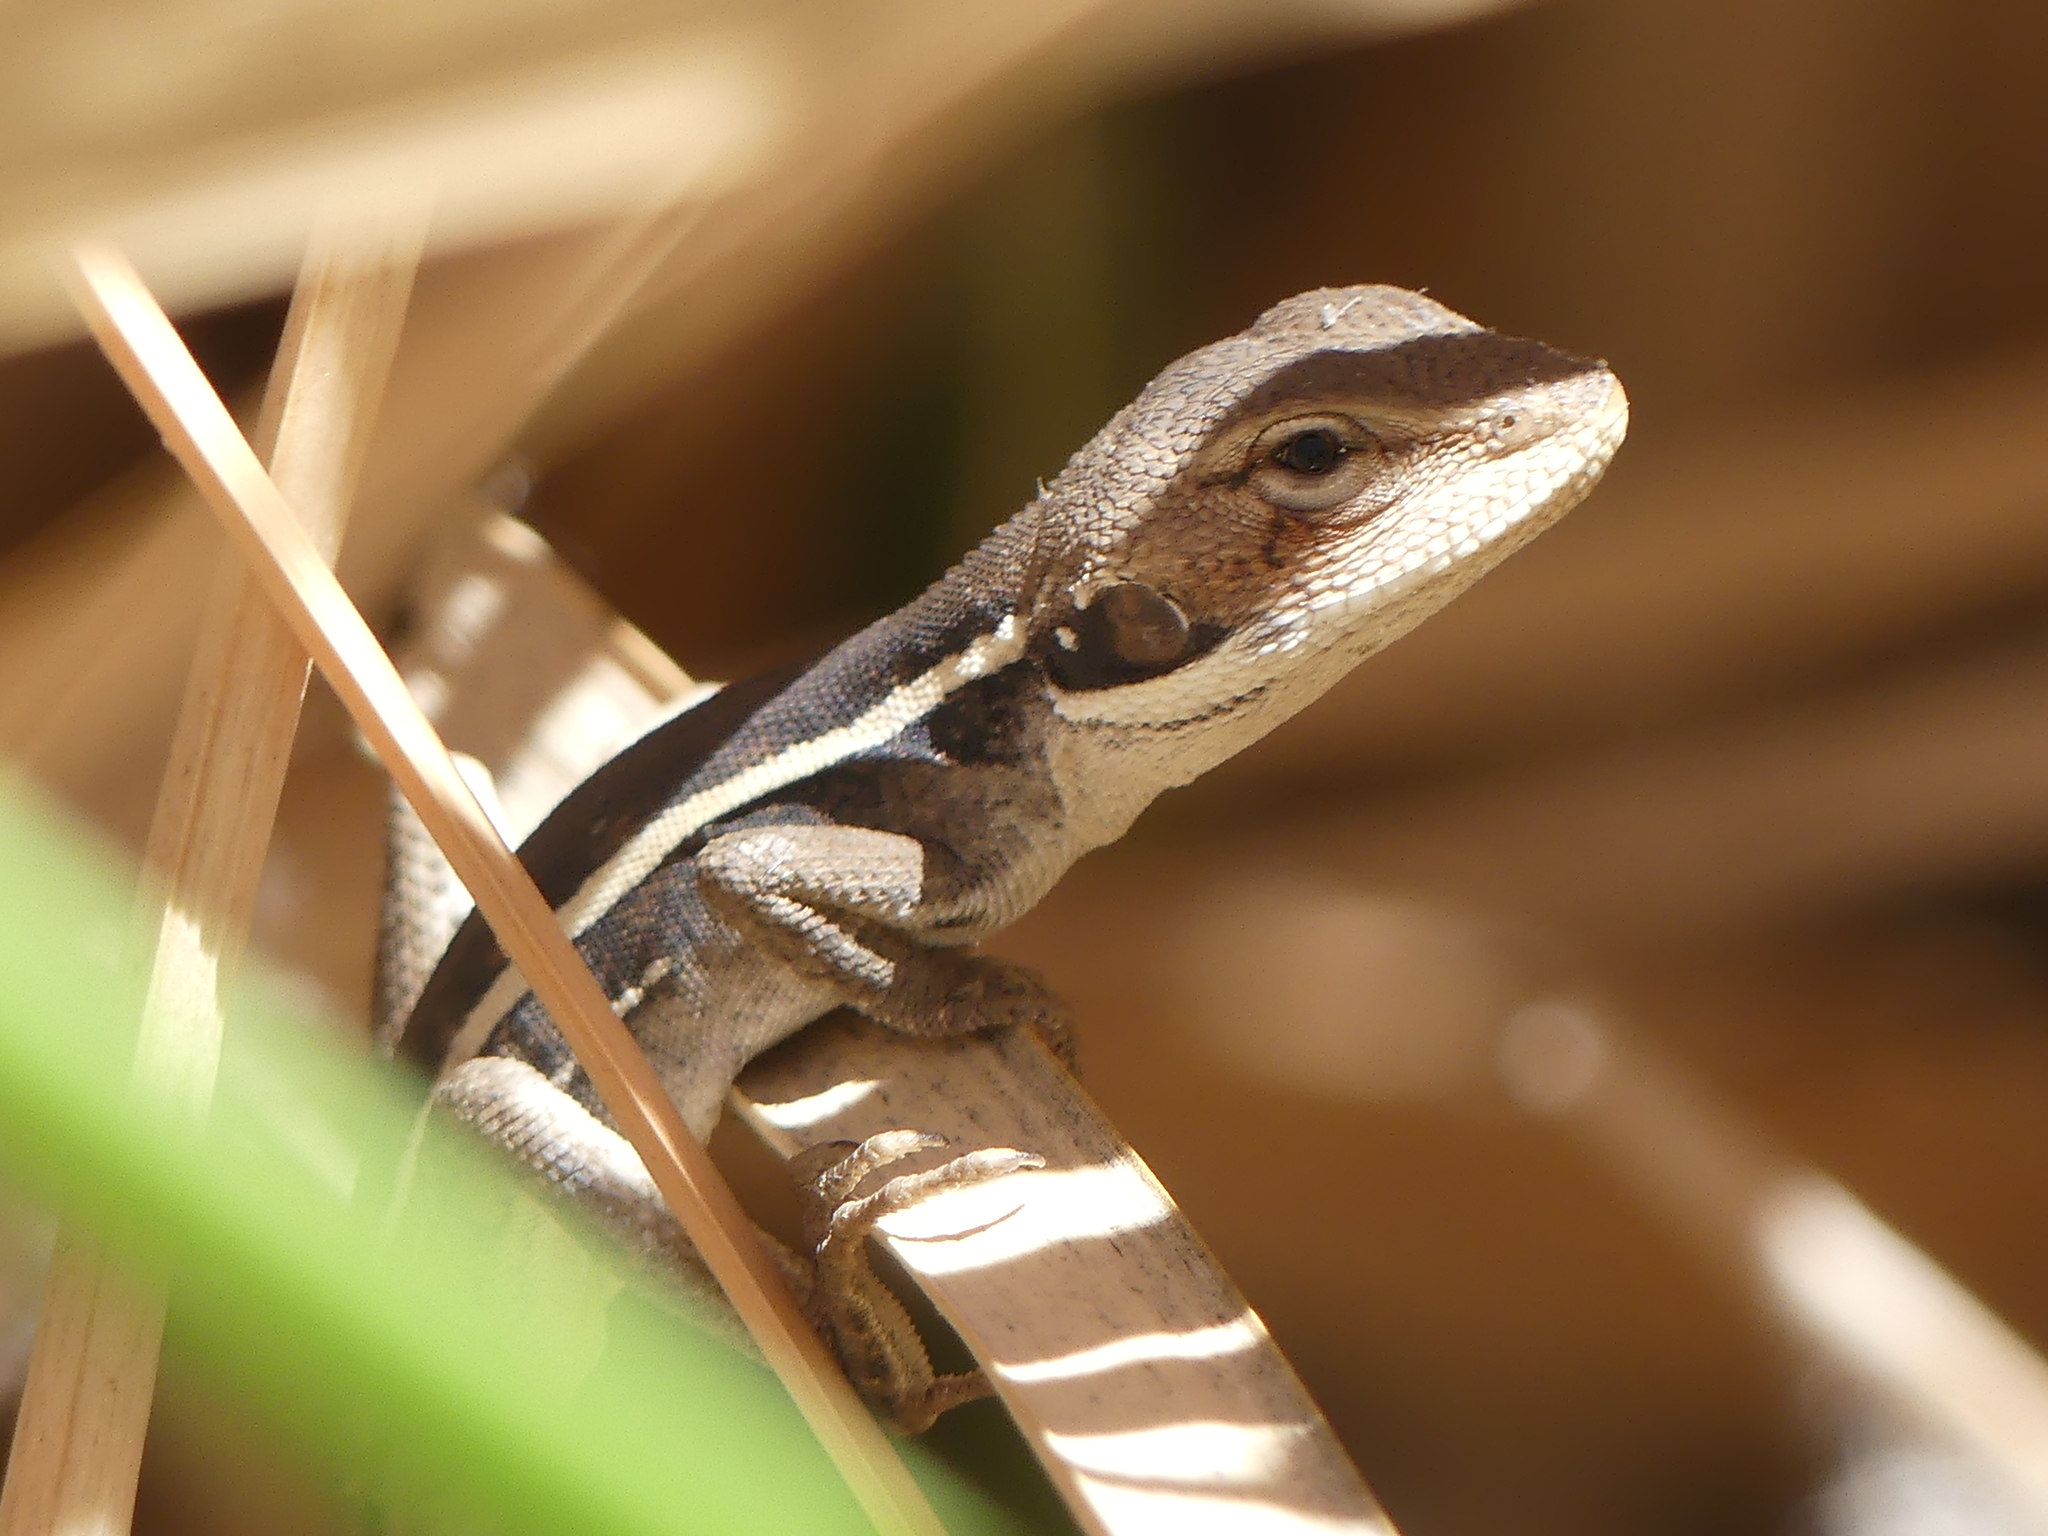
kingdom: Animalia
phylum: Chordata
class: Squamata
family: Agamidae
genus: Gowidon
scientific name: Gowidon longirostris
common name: Long-nosed water dragon
